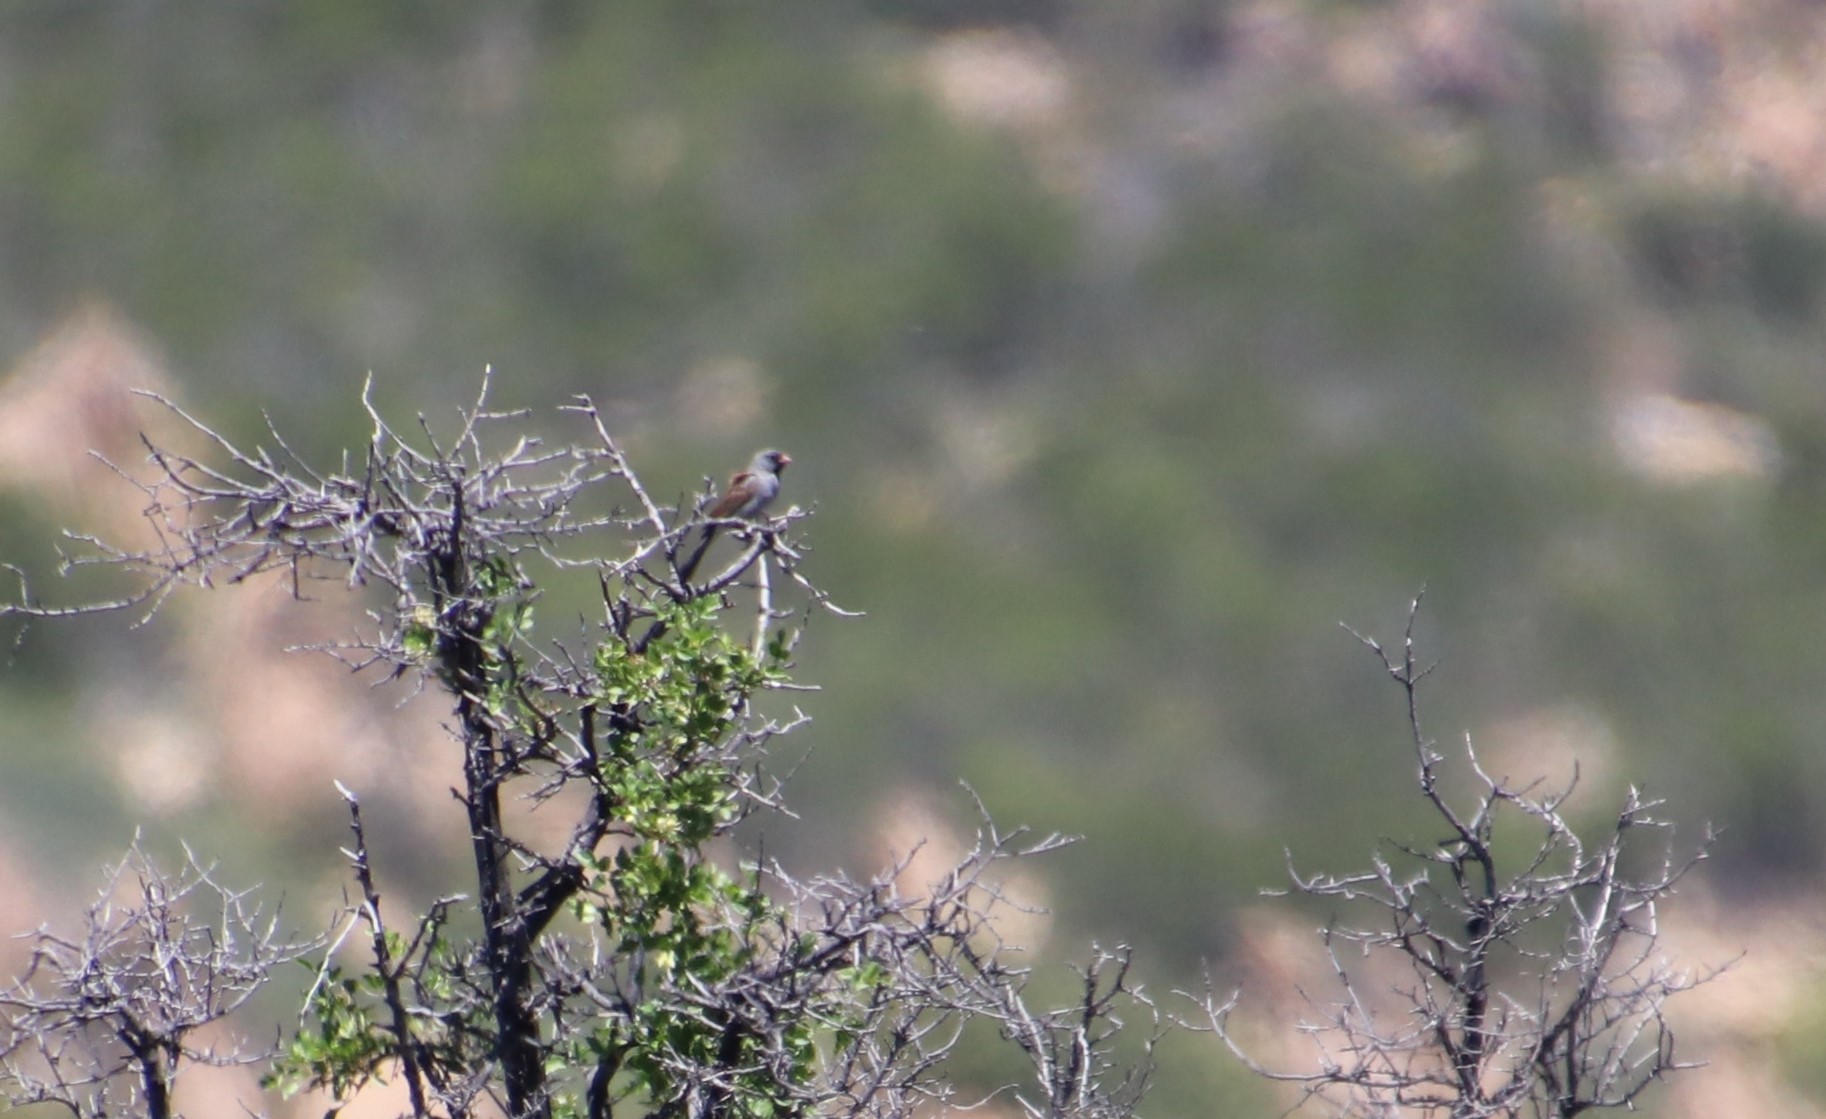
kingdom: Animalia
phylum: Chordata
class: Aves
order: Passeriformes
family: Passerellidae
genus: Spizella
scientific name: Spizella atrogularis
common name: Black-chinned sparrow
